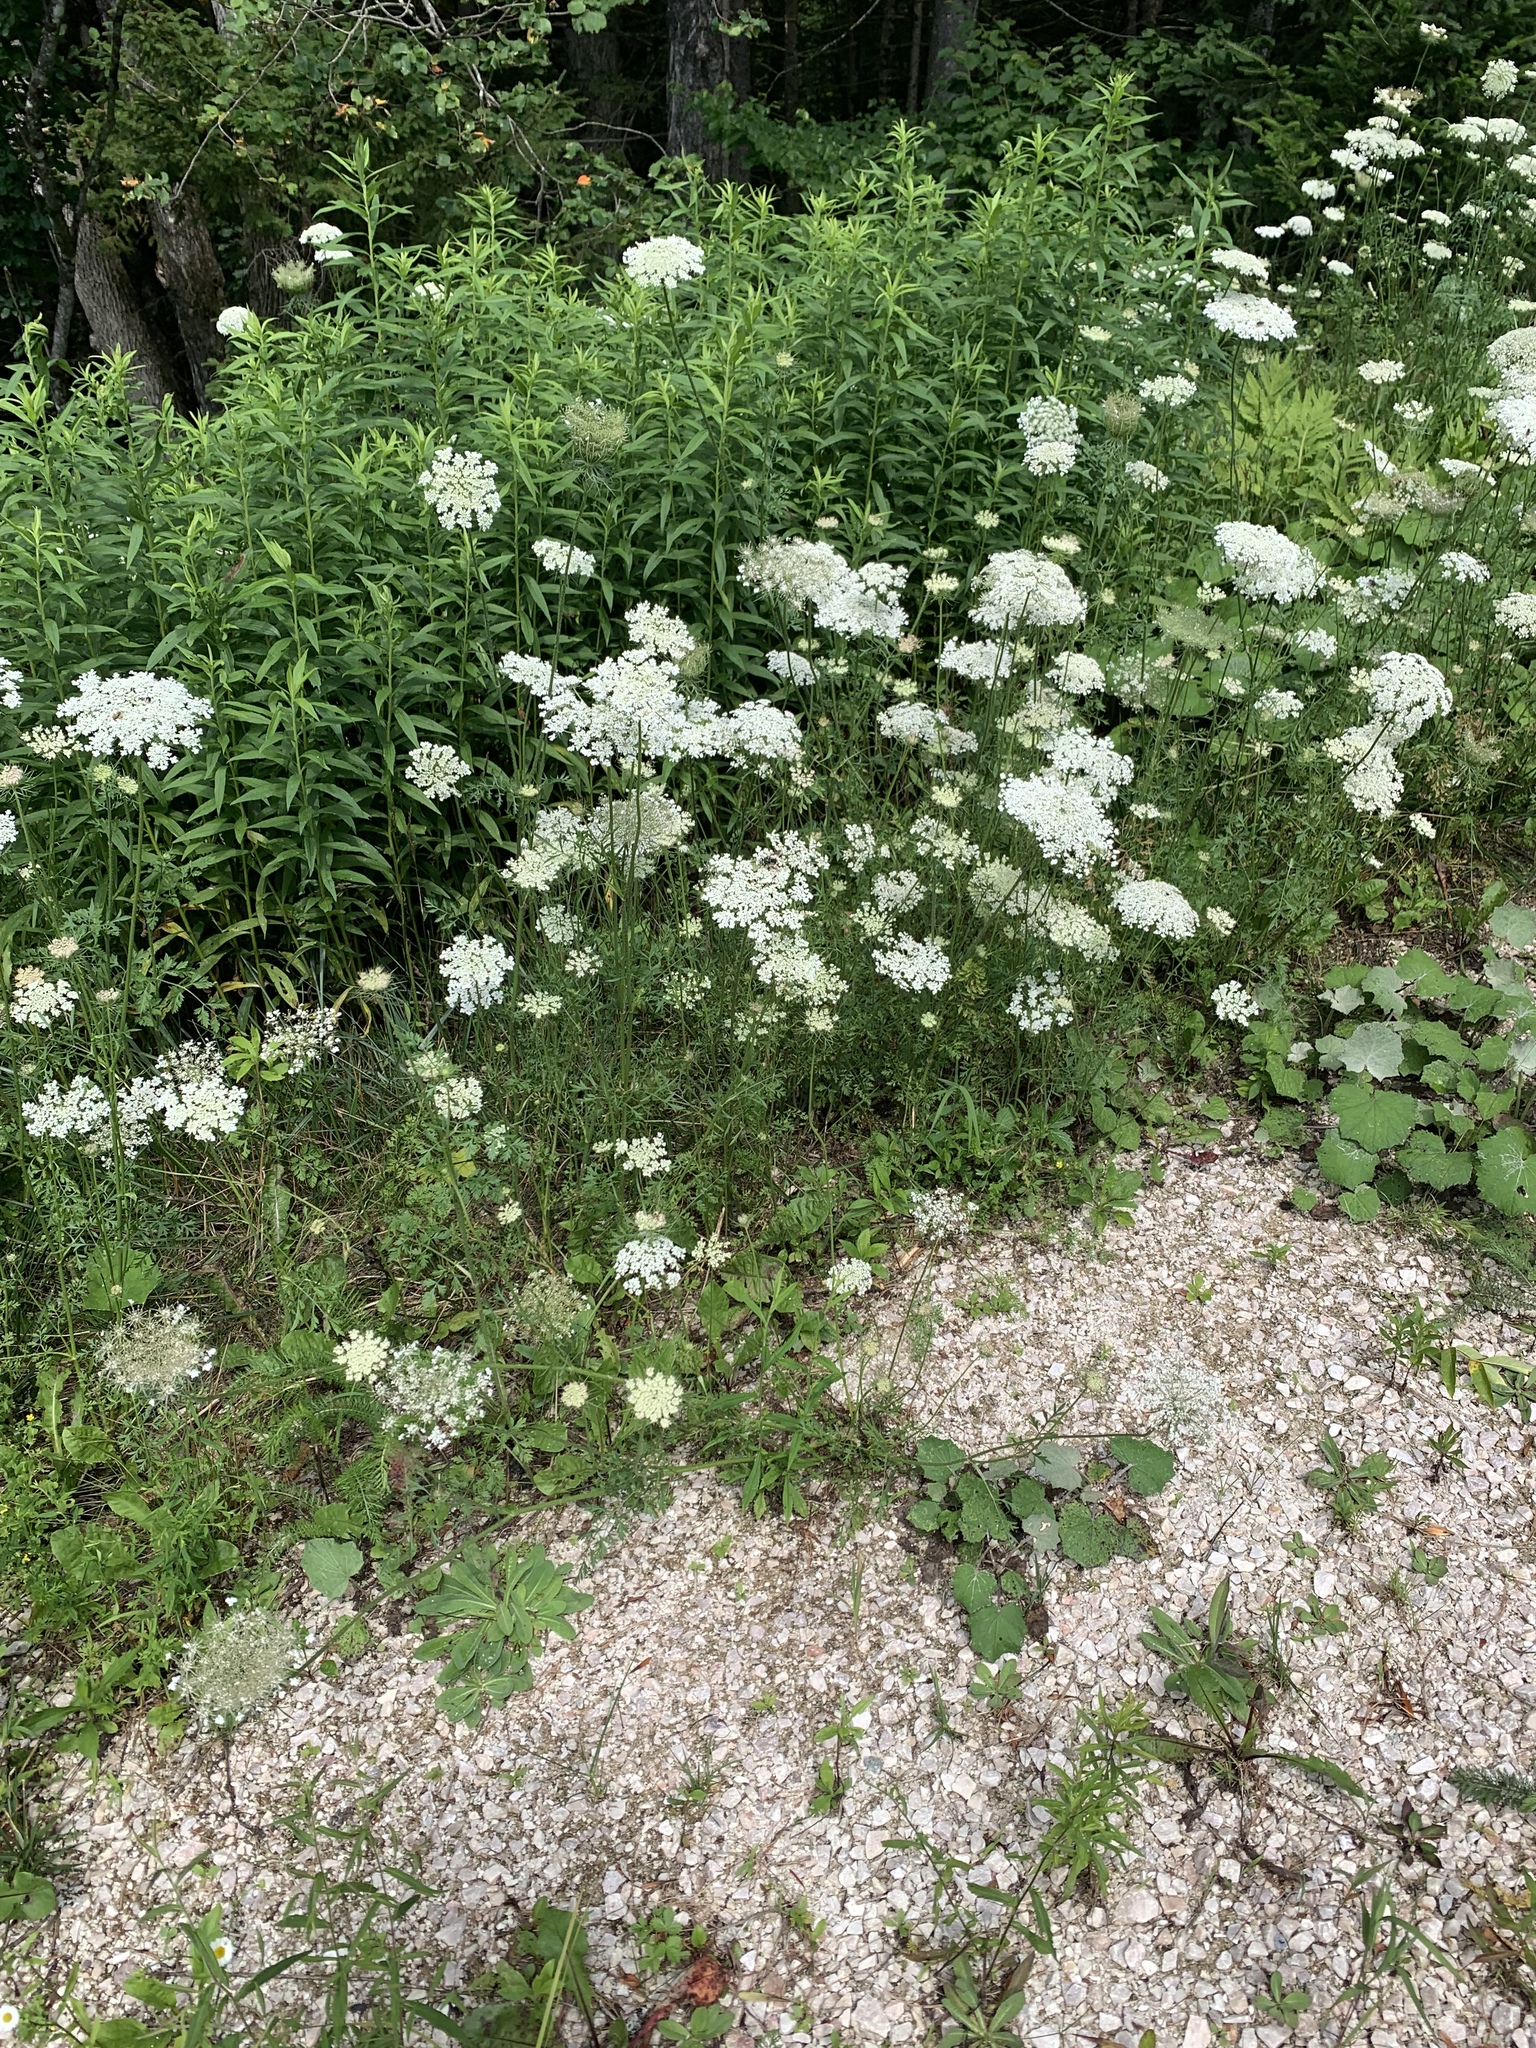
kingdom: Plantae
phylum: Tracheophyta
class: Magnoliopsida
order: Apiales
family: Apiaceae
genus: Daucus
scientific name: Daucus carota
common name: Wild carrot
